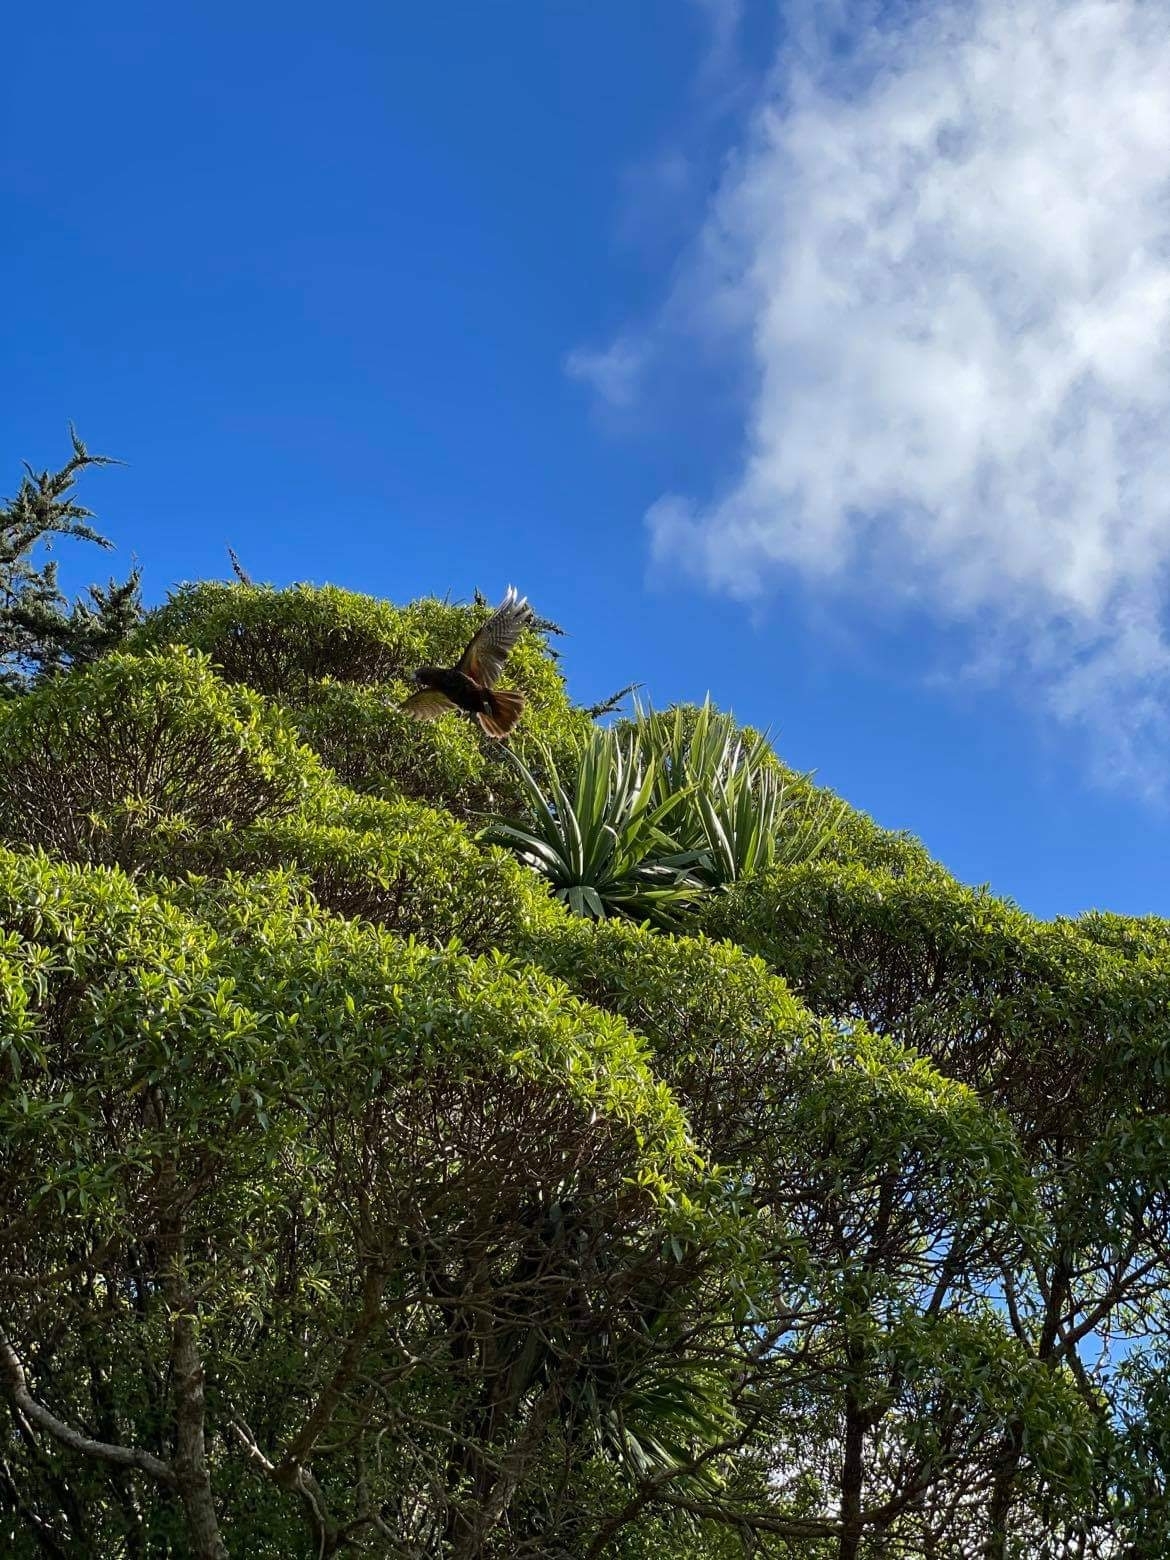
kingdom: Animalia
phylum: Chordata
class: Aves
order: Psittaciformes
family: Psittacidae
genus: Nestor
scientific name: Nestor meridionalis
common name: New zealand kaka
